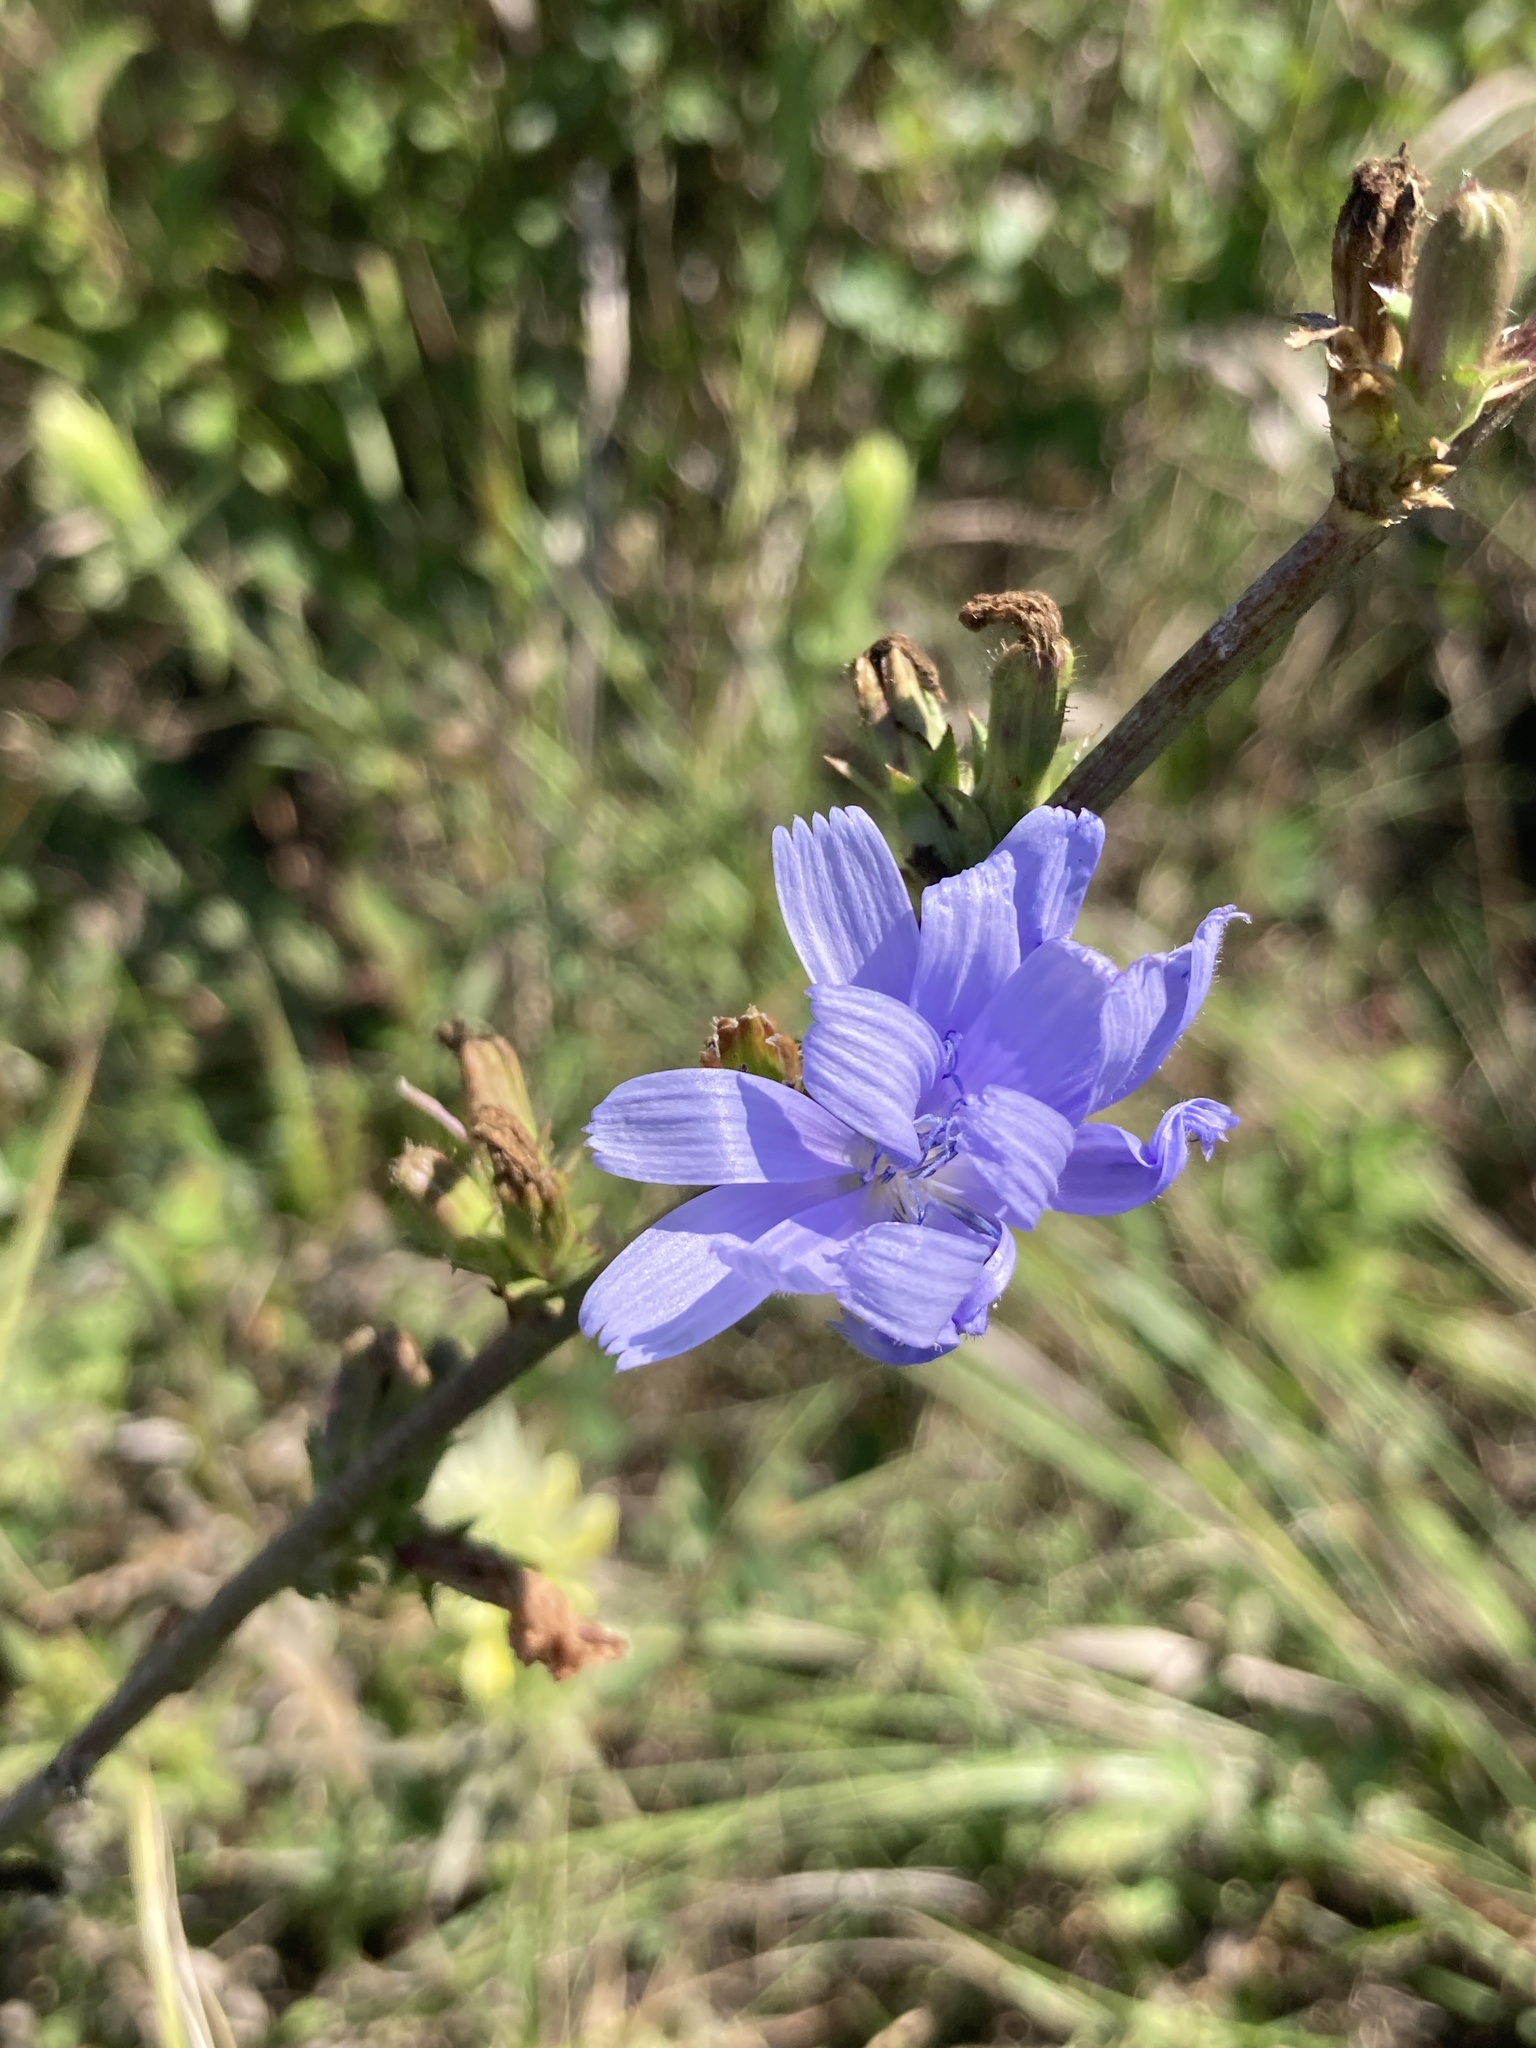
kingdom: Plantae
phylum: Tracheophyta
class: Magnoliopsida
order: Asterales
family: Asteraceae
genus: Cichorium
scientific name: Cichorium intybus
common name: Chicory
